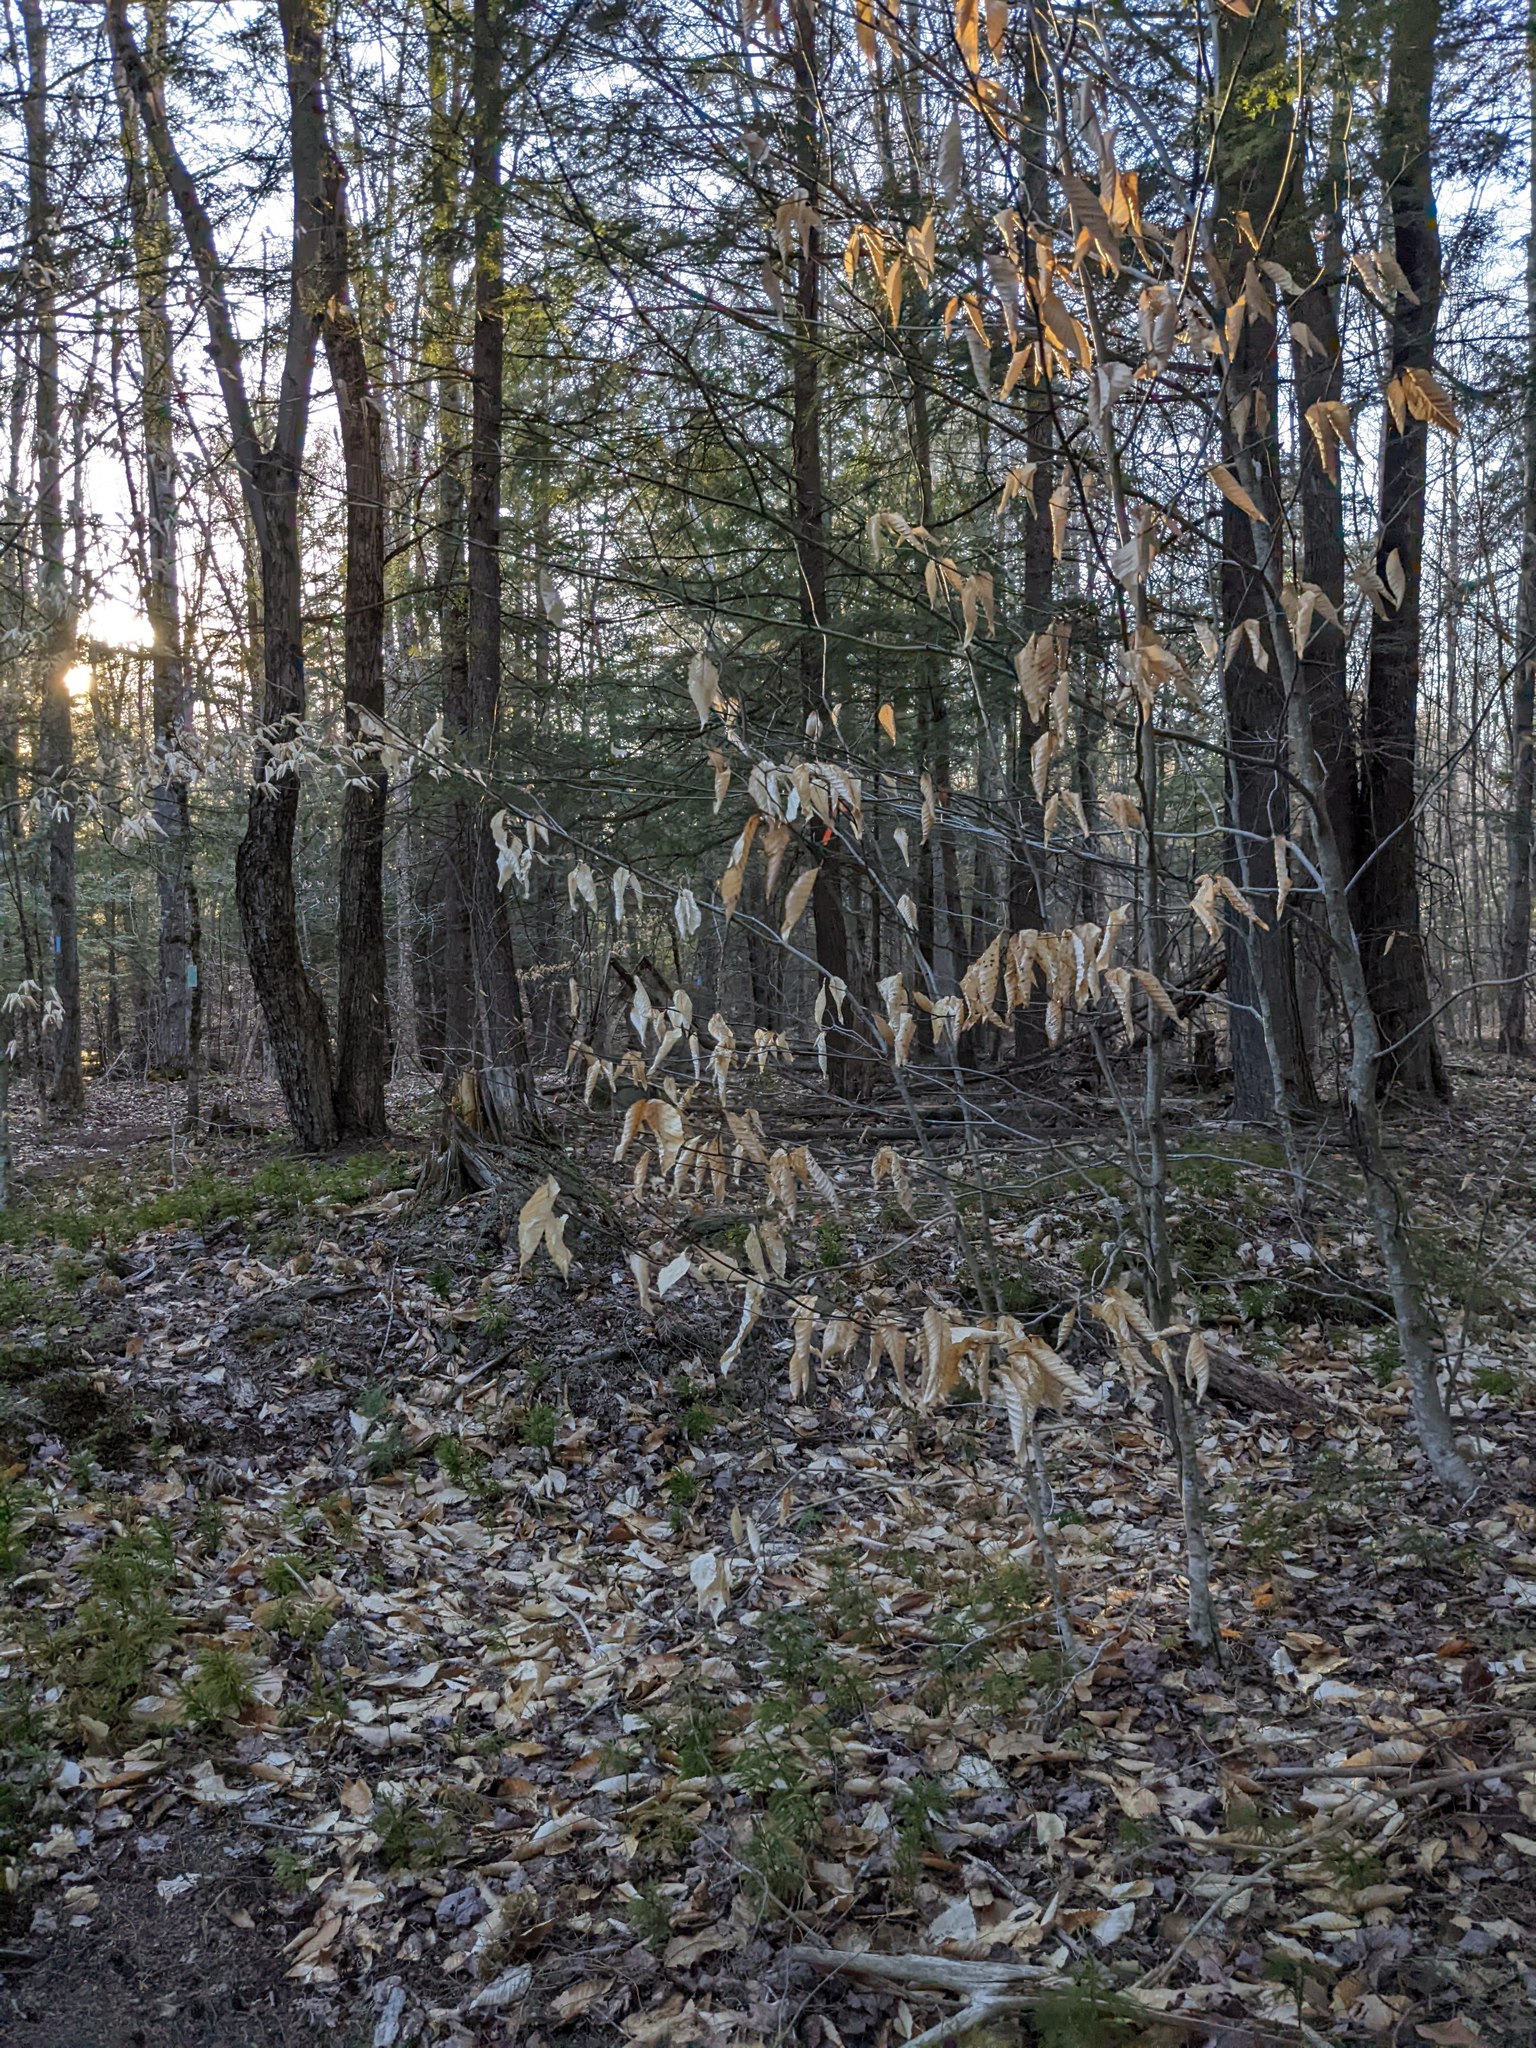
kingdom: Plantae
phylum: Tracheophyta
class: Magnoliopsida
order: Fagales
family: Fagaceae
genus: Fagus
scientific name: Fagus grandifolia
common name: American beech
